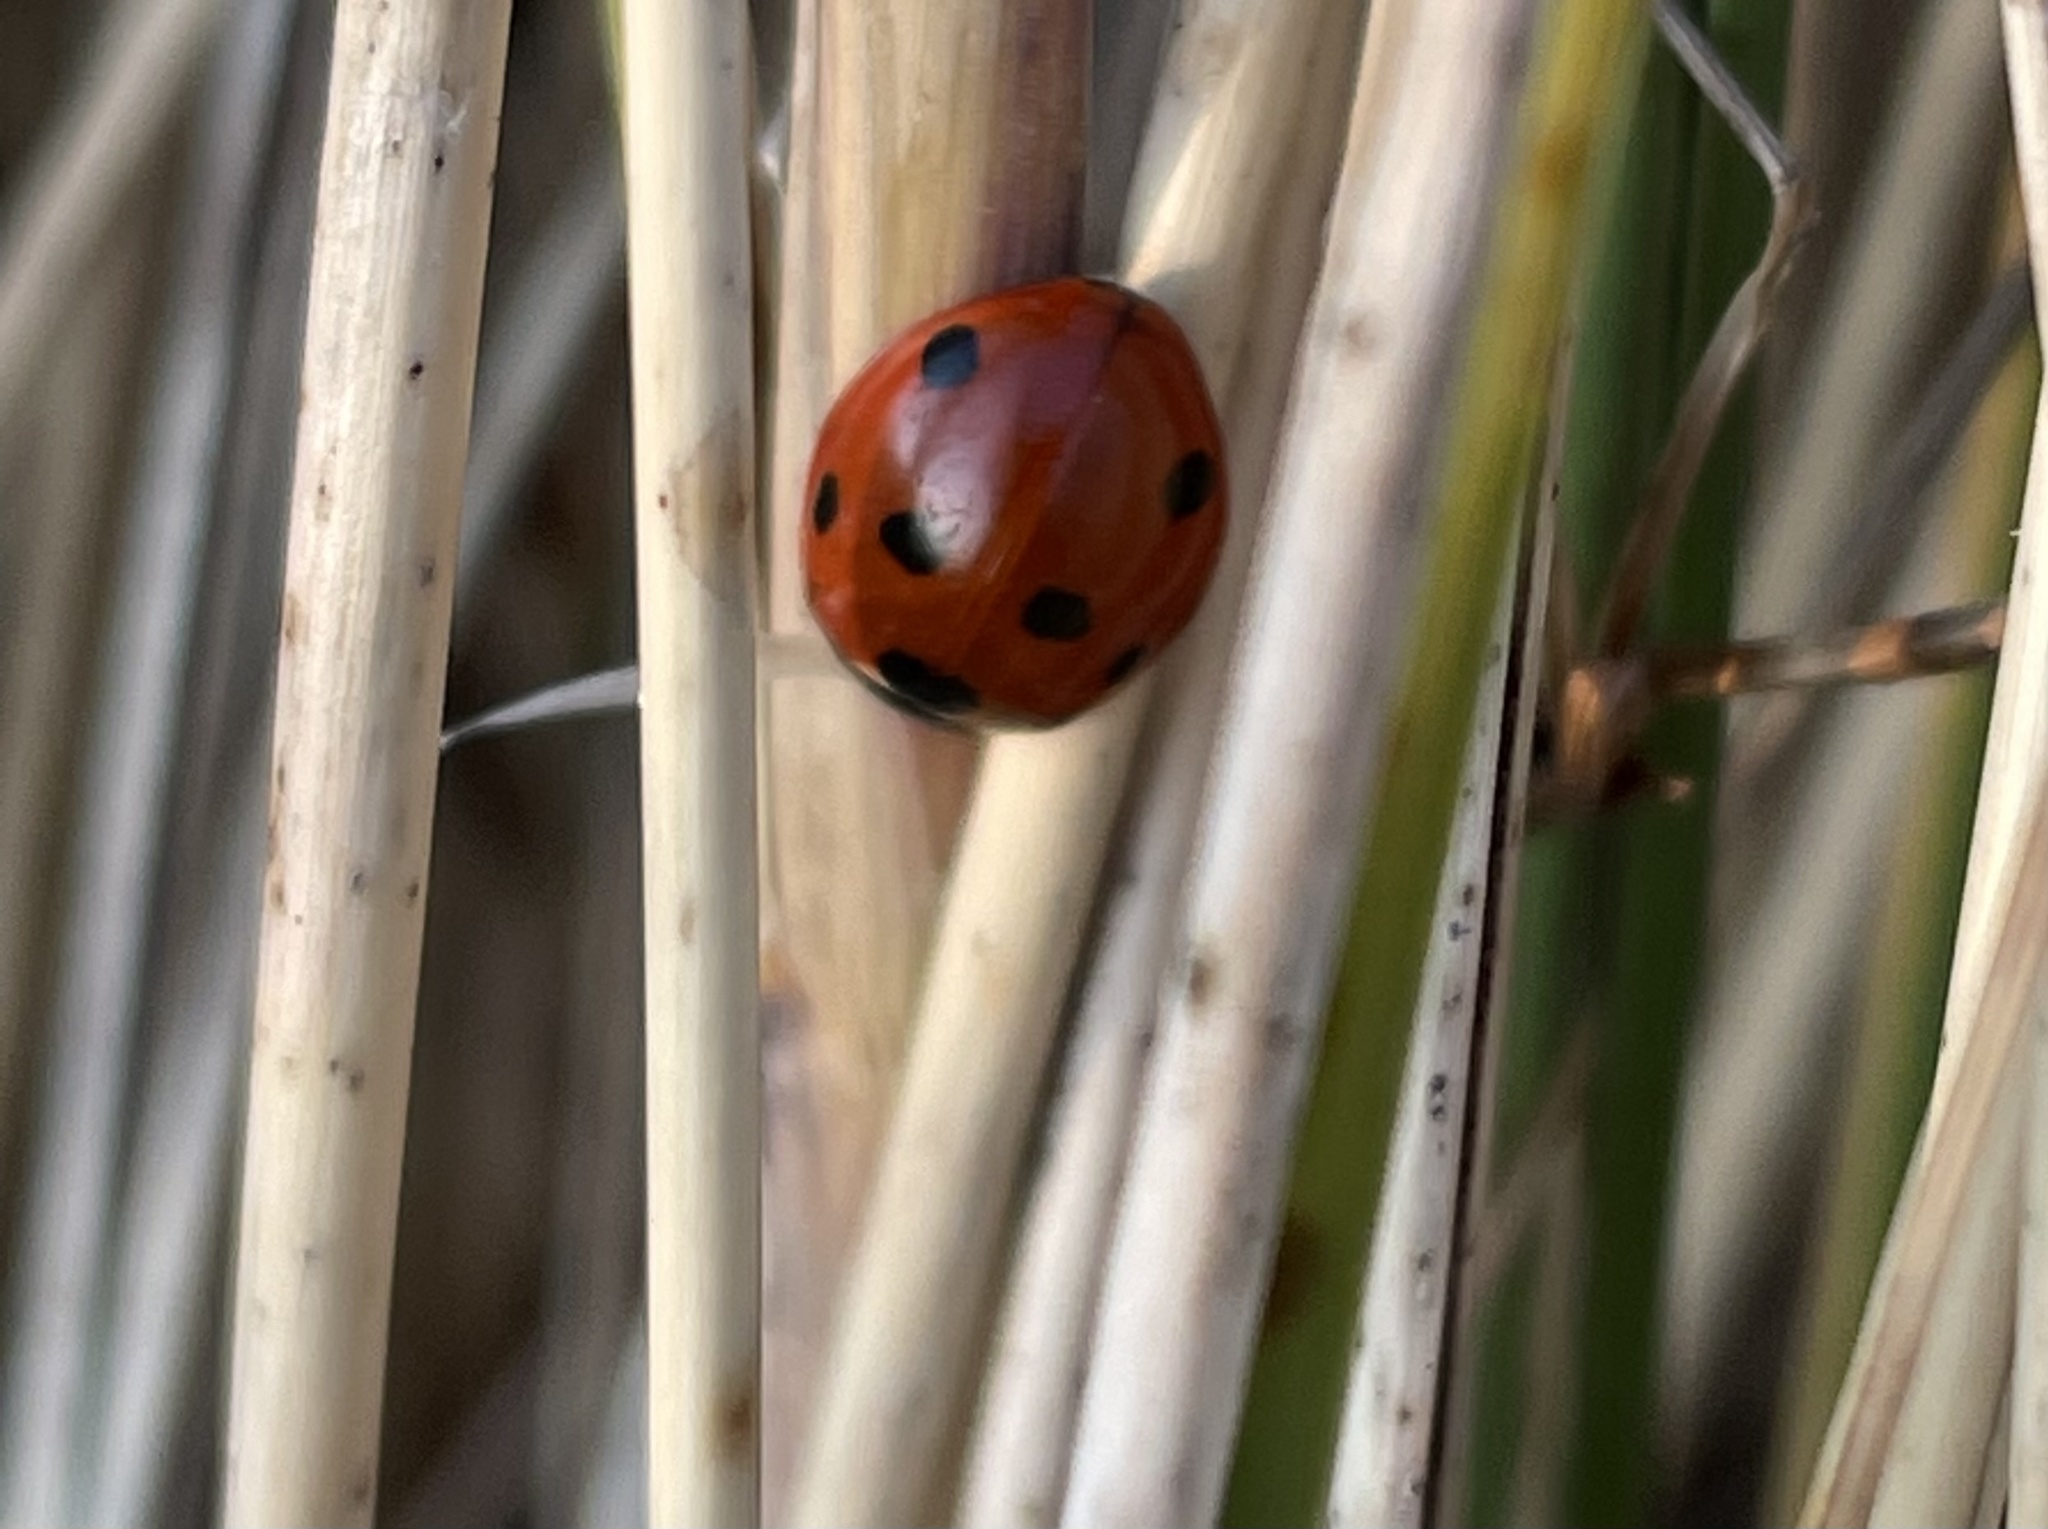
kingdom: Animalia
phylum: Arthropoda
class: Insecta
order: Coleoptera
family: Coccinellidae
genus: Coccinella
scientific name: Coccinella septempunctata
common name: Sevenspotted lady beetle
